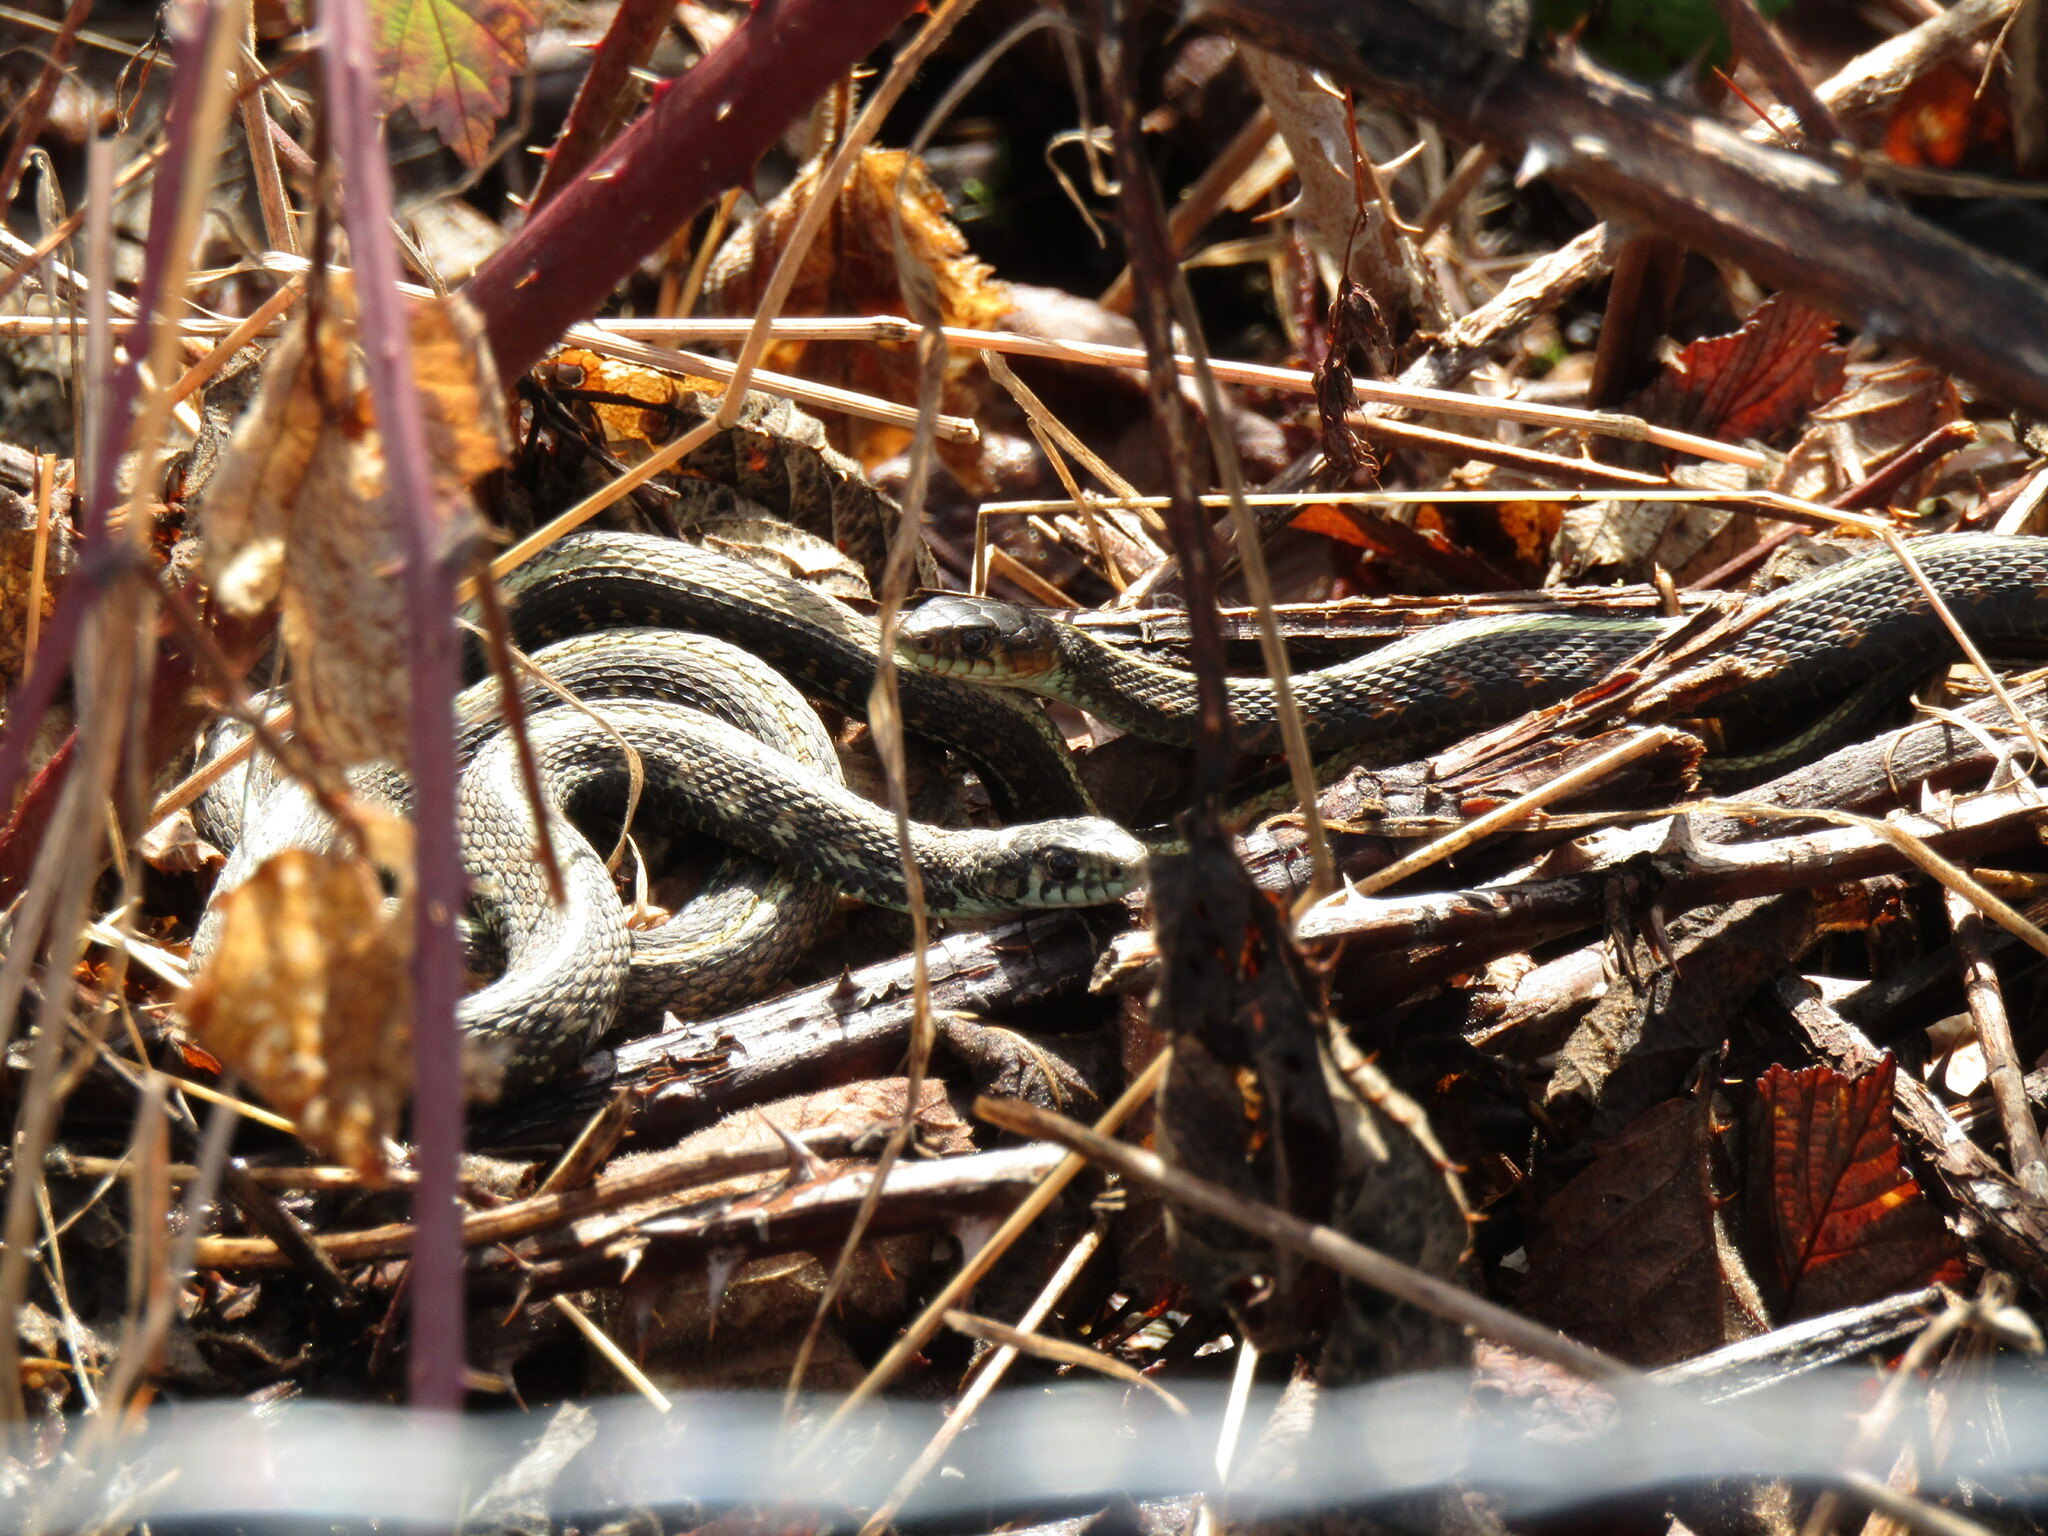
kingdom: Animalia
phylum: Chordata
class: Squamata
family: Colubridae
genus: Thamnophis
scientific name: Thamnophis sirtalis
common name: Common garter snake
